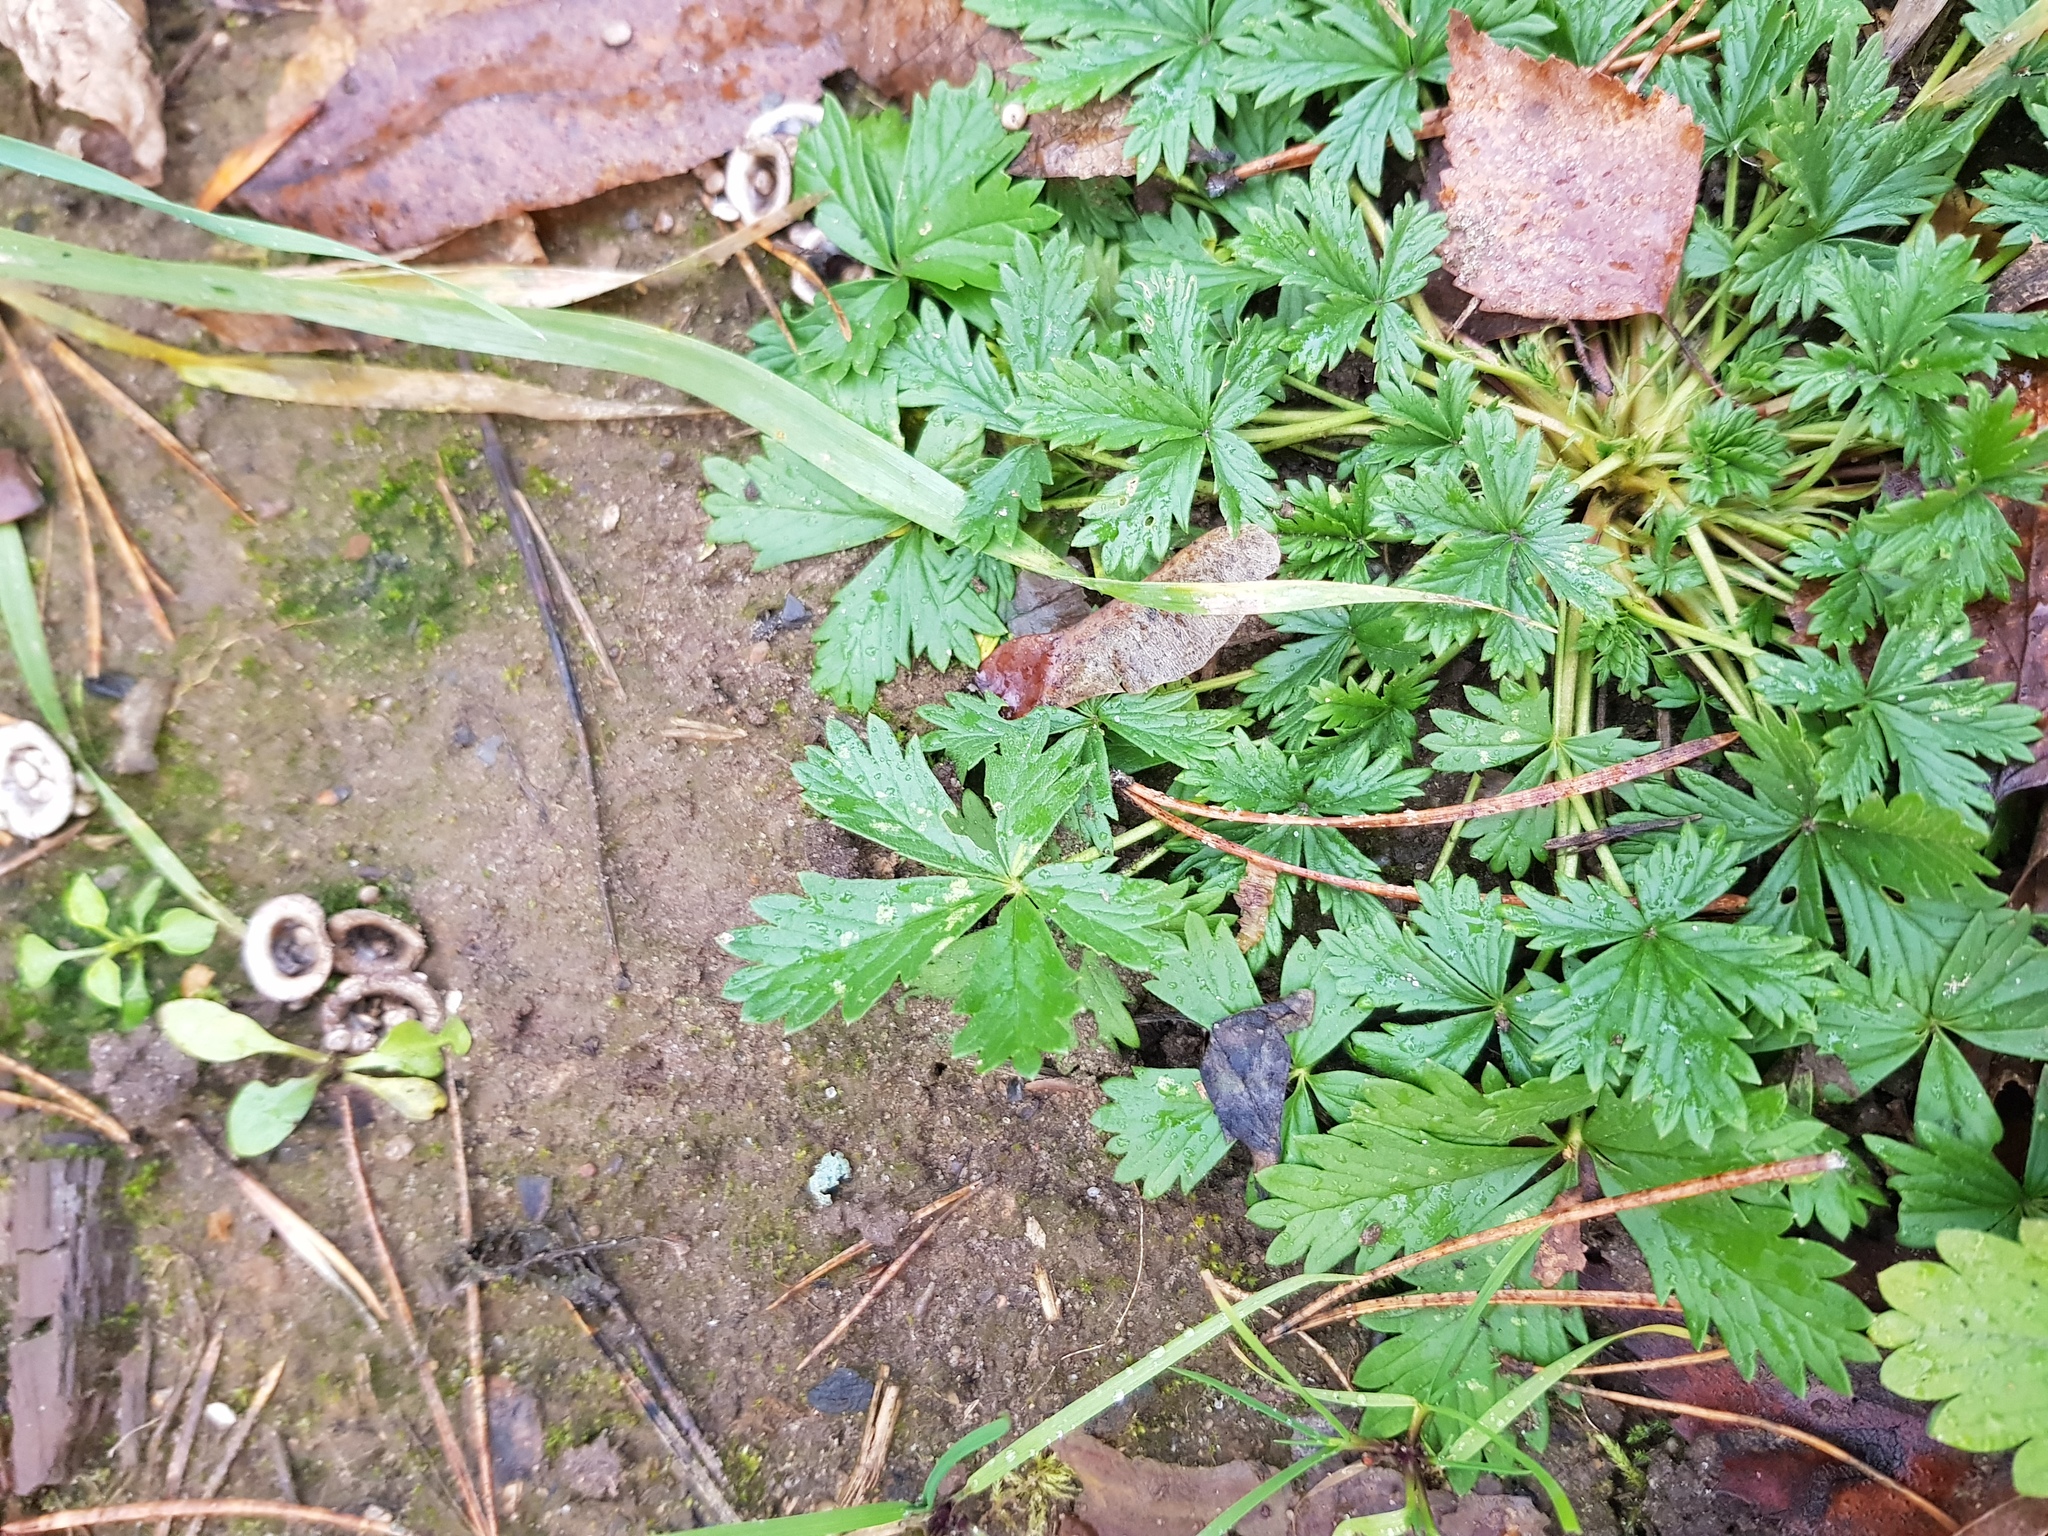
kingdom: Plantae
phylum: Tracheophyta
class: Magnoliopsida
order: Rosales
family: Rosaceae
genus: Potentilla
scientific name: Potentilla intermedia
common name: Downy cinquefoil
